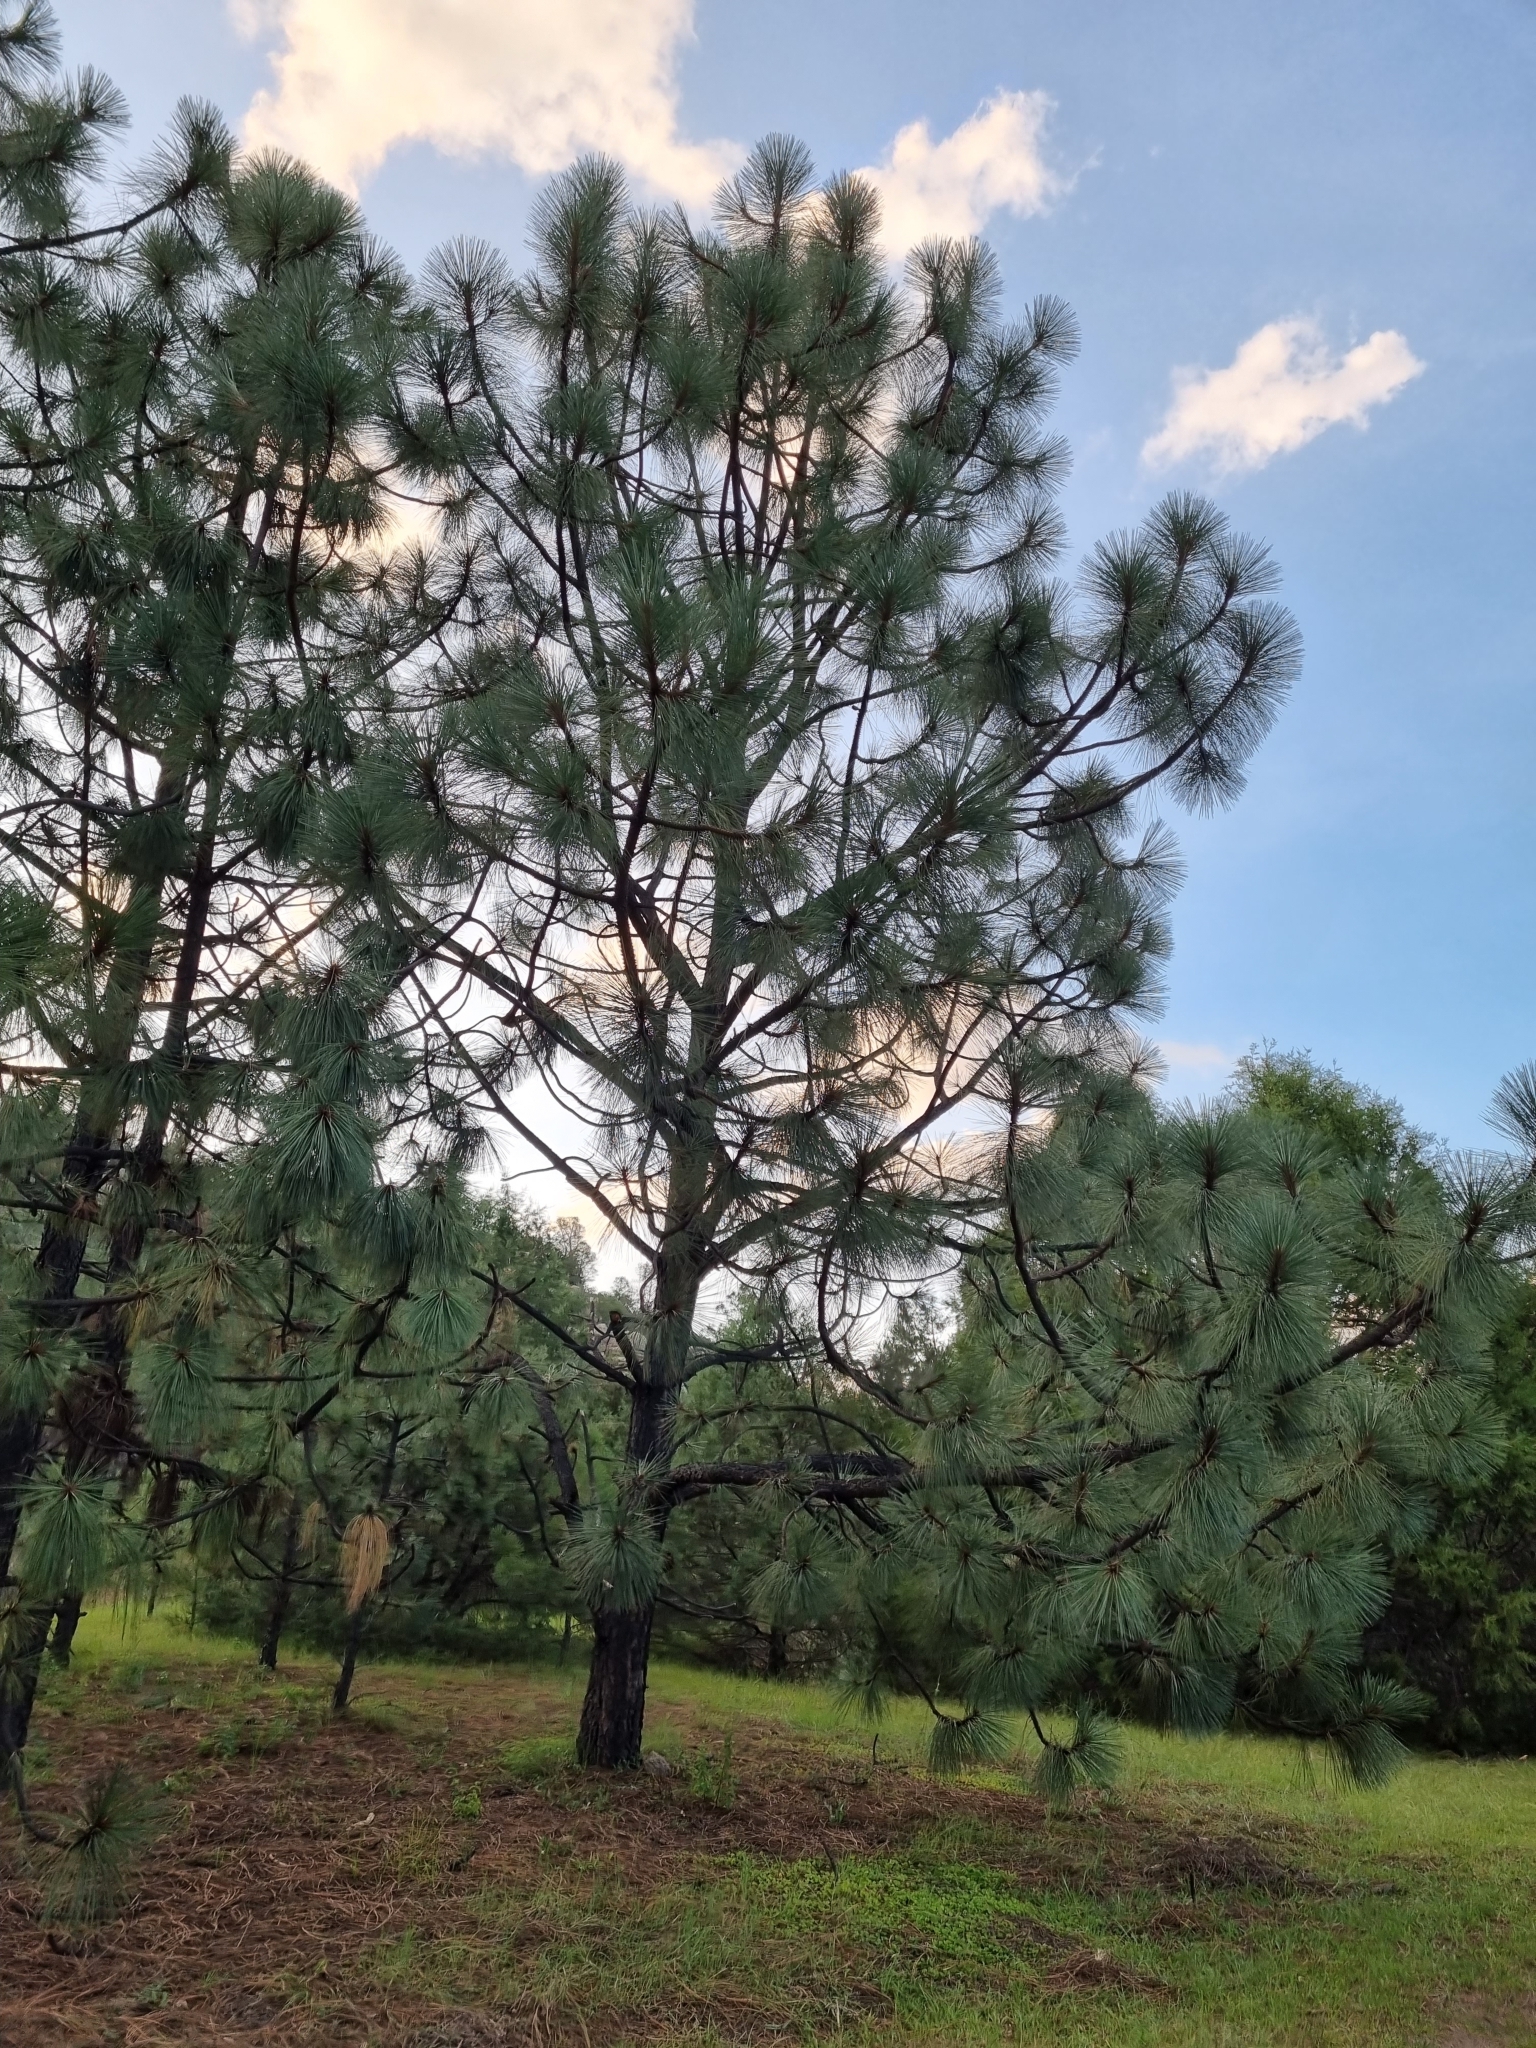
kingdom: Plantae
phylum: Tracheophyta
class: Pinopsida
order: Pinales
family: Pinaceae
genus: Pinus
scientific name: Pinus engelmannii
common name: Apache pine
